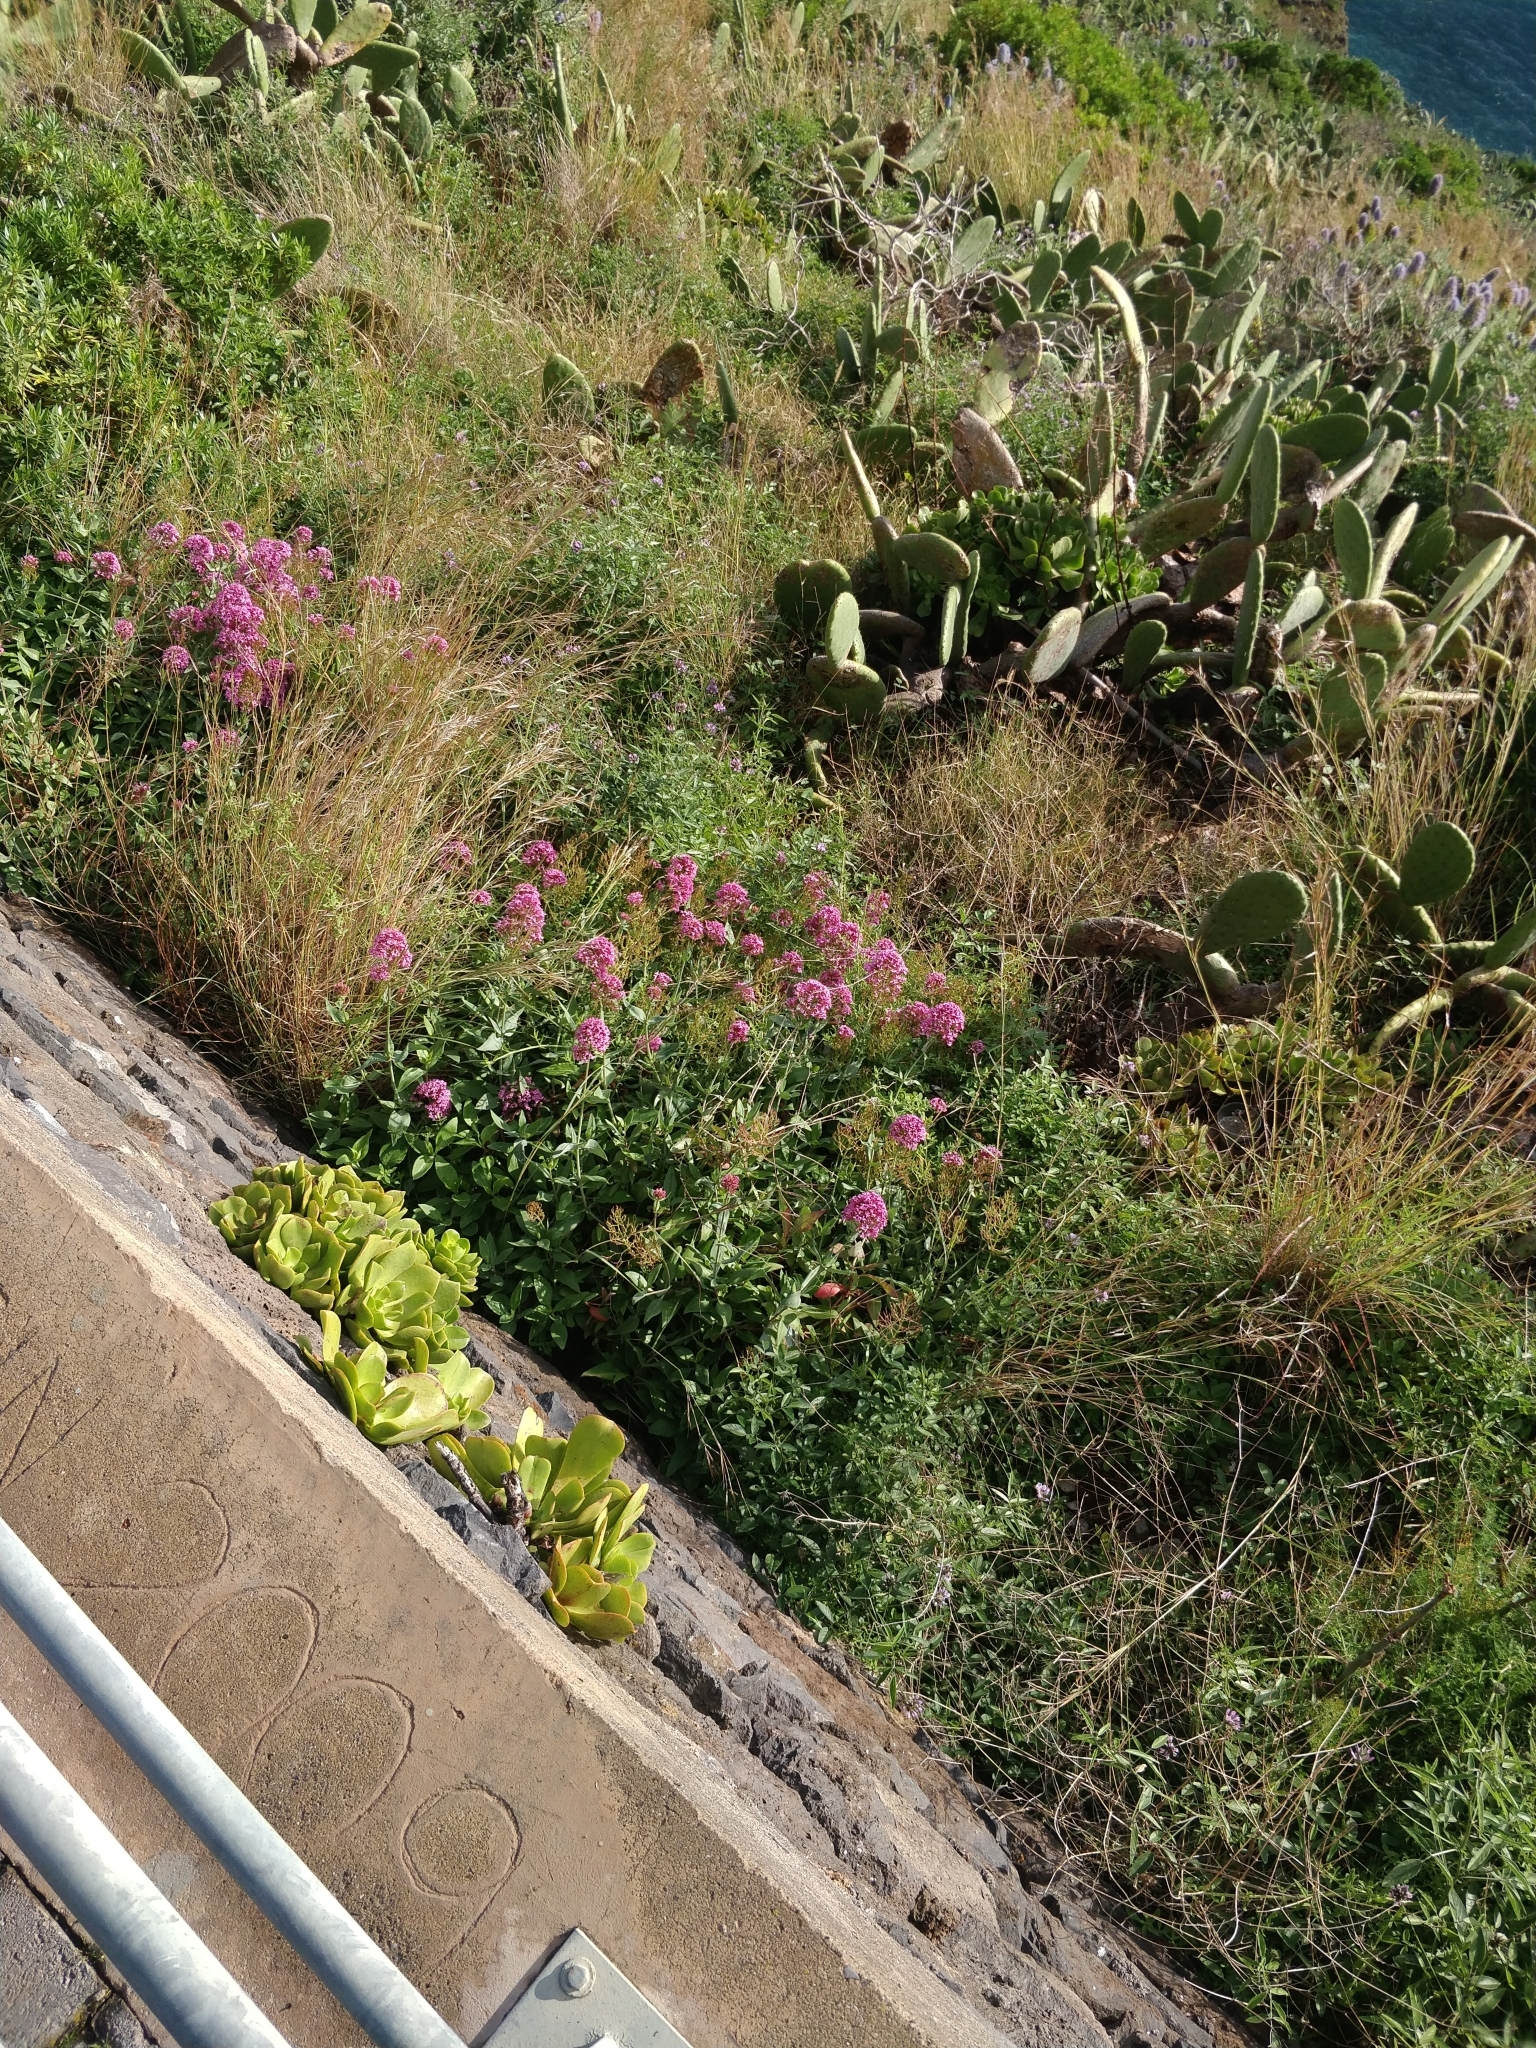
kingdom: Plantae
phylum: Tracheophyta
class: Magnoliopsida
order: Dipsacales
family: Caprifoliaceae
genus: Centranthus
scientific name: Centranthus ruber
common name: Red valerian
